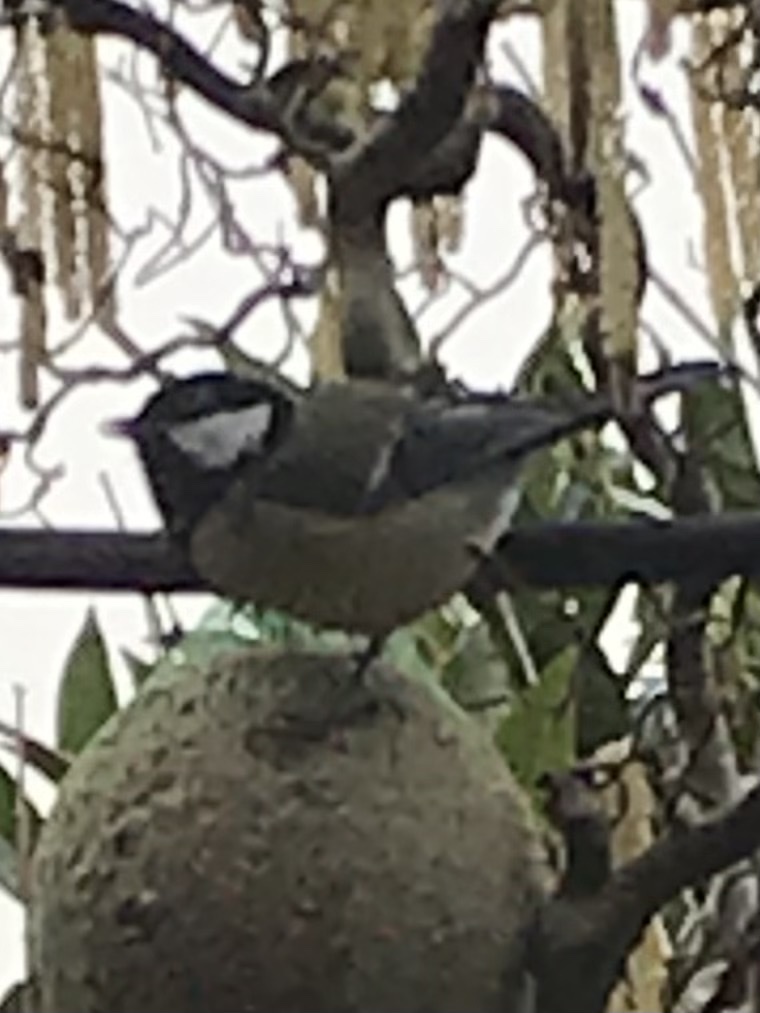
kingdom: Animalia
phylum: Chordata
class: Aves
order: Passeriformes
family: Paridae
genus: Parus
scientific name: Parus major
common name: Great tit
